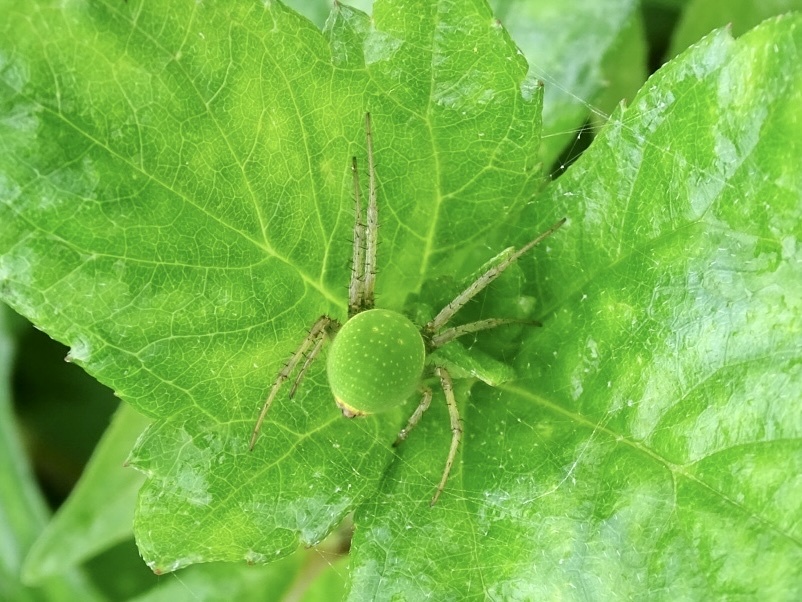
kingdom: Animalia
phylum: Arthropoda
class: Arachnida
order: Araneae
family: Araneidae
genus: Neoscona
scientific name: Neoscona scylloides
